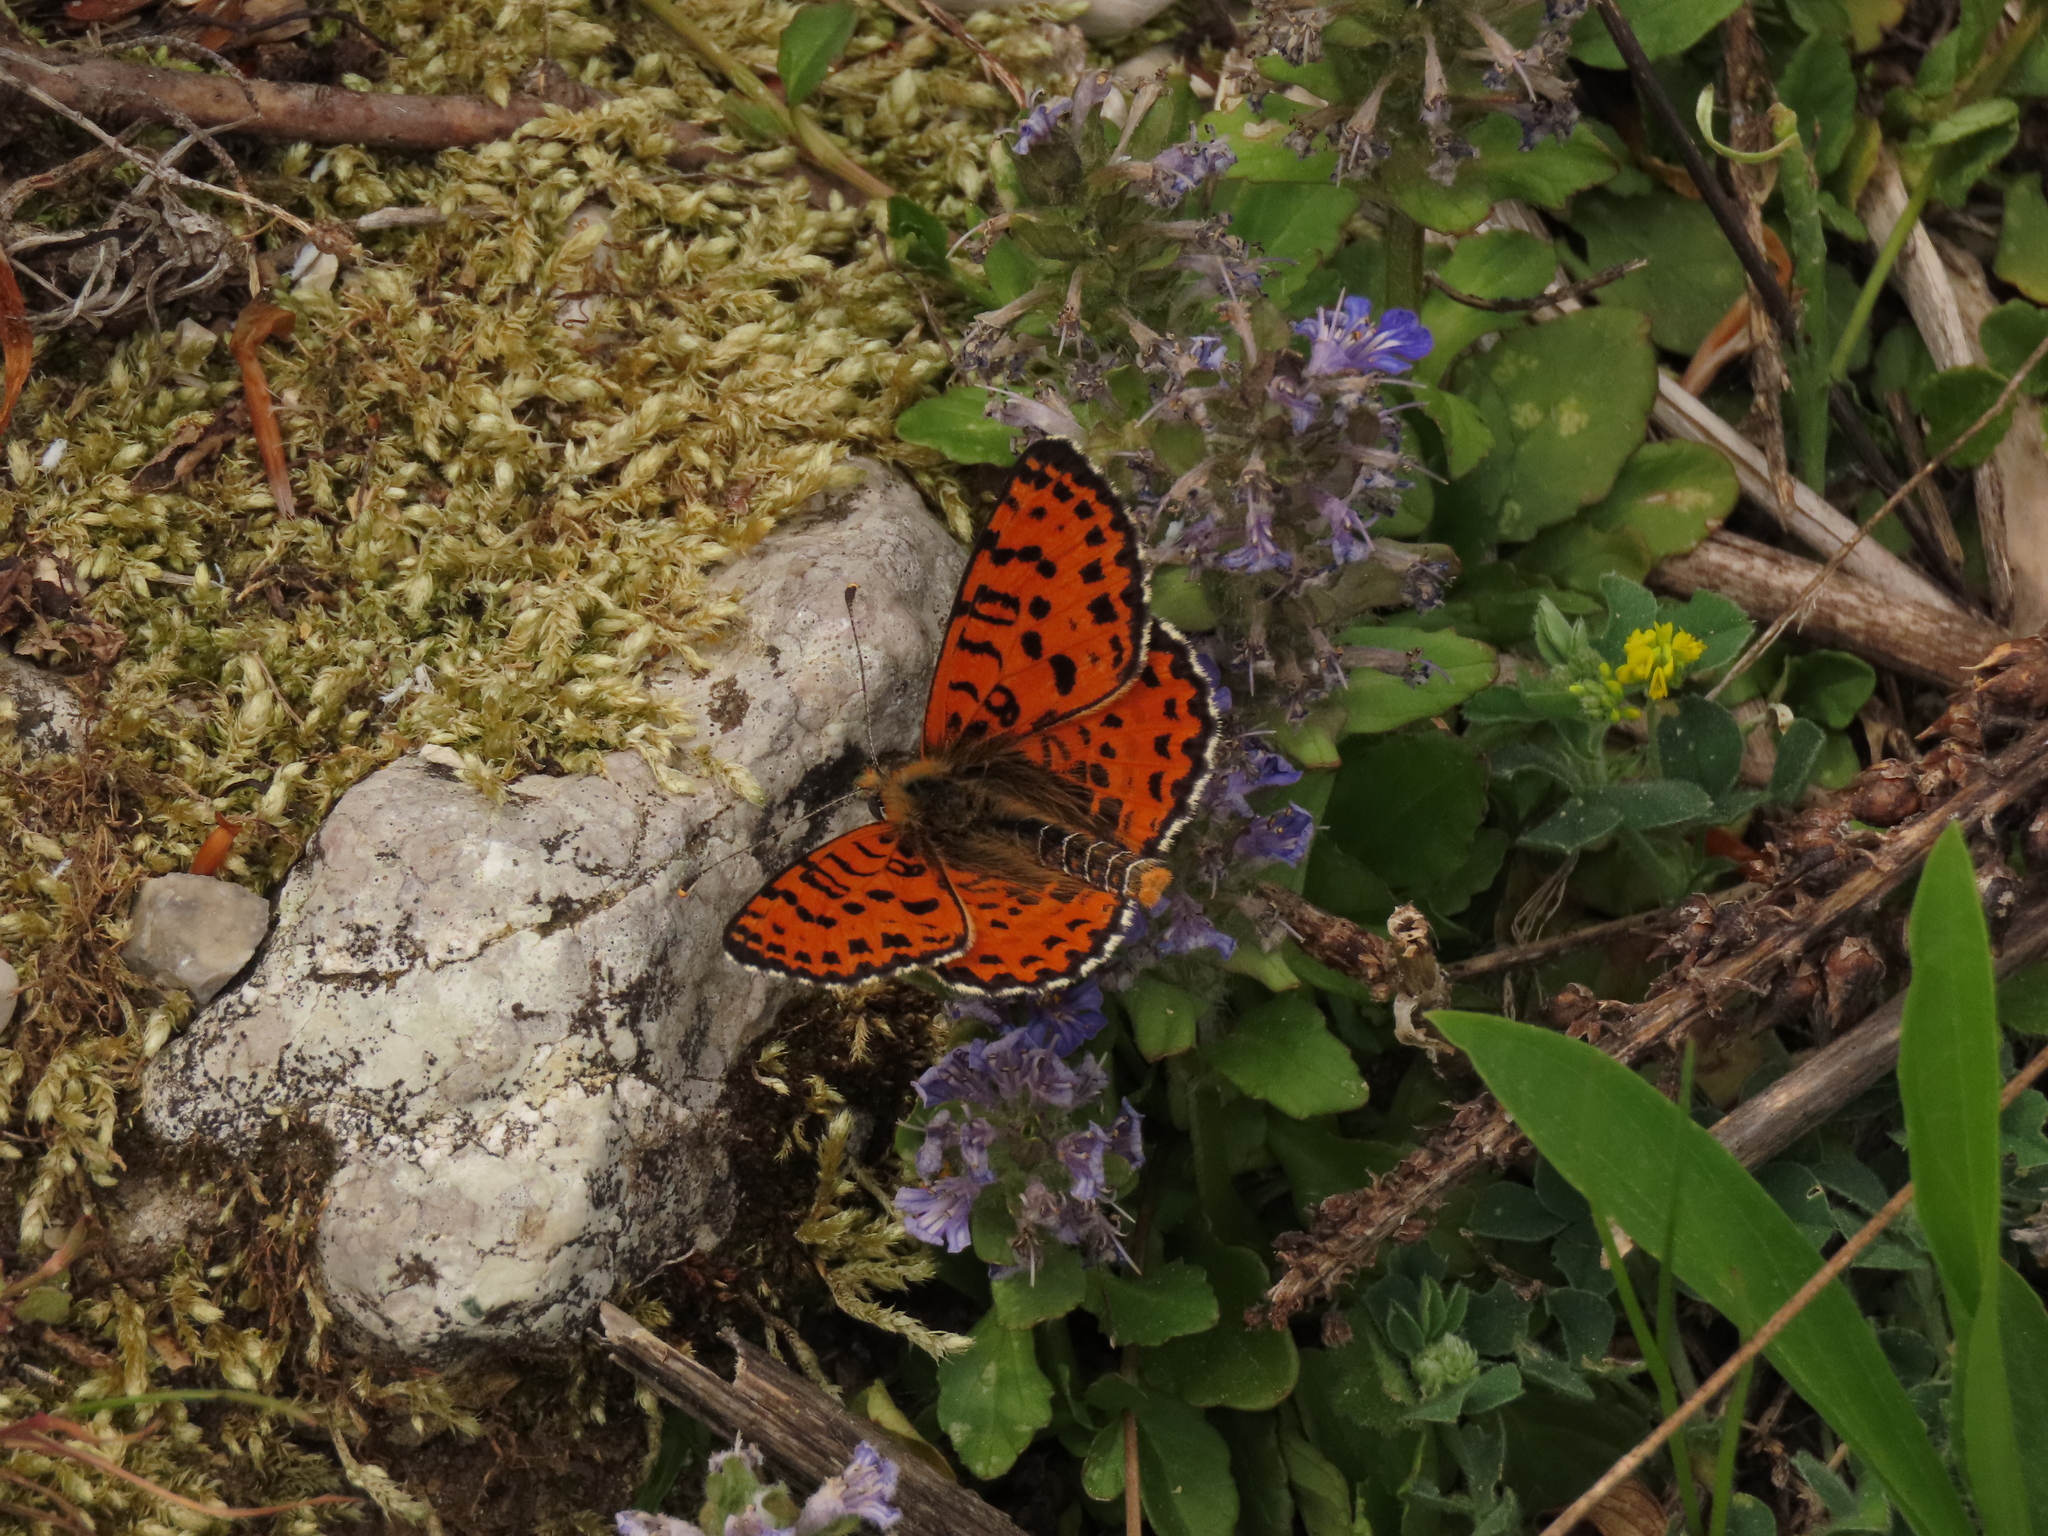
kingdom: Animalia
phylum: Arthropoda
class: Insecta
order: Lepidoptera
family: Nymphalidae
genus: Melitaea
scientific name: Melitaea didyma
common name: Spotted fritillary
